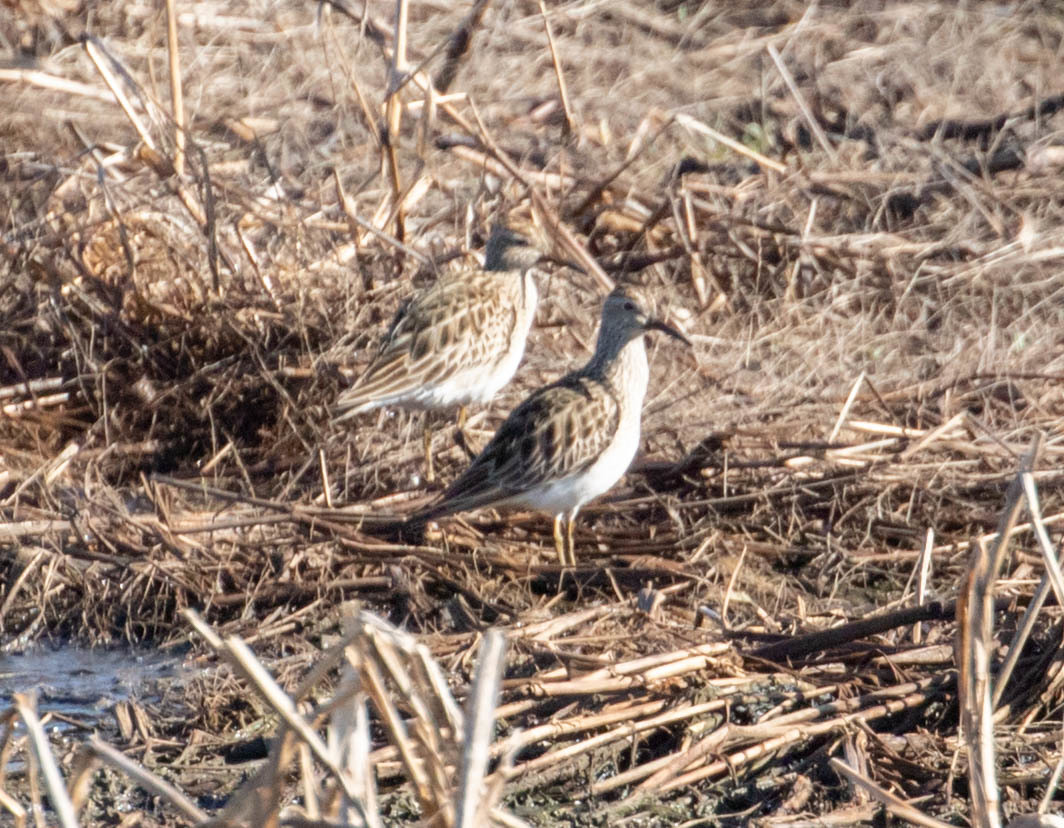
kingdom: Animalia
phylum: Chordata
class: Aves
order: Charadriiformes
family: Scolopacidae
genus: Calidris
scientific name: Calidris melanotos
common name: Pectoral sandpiper
